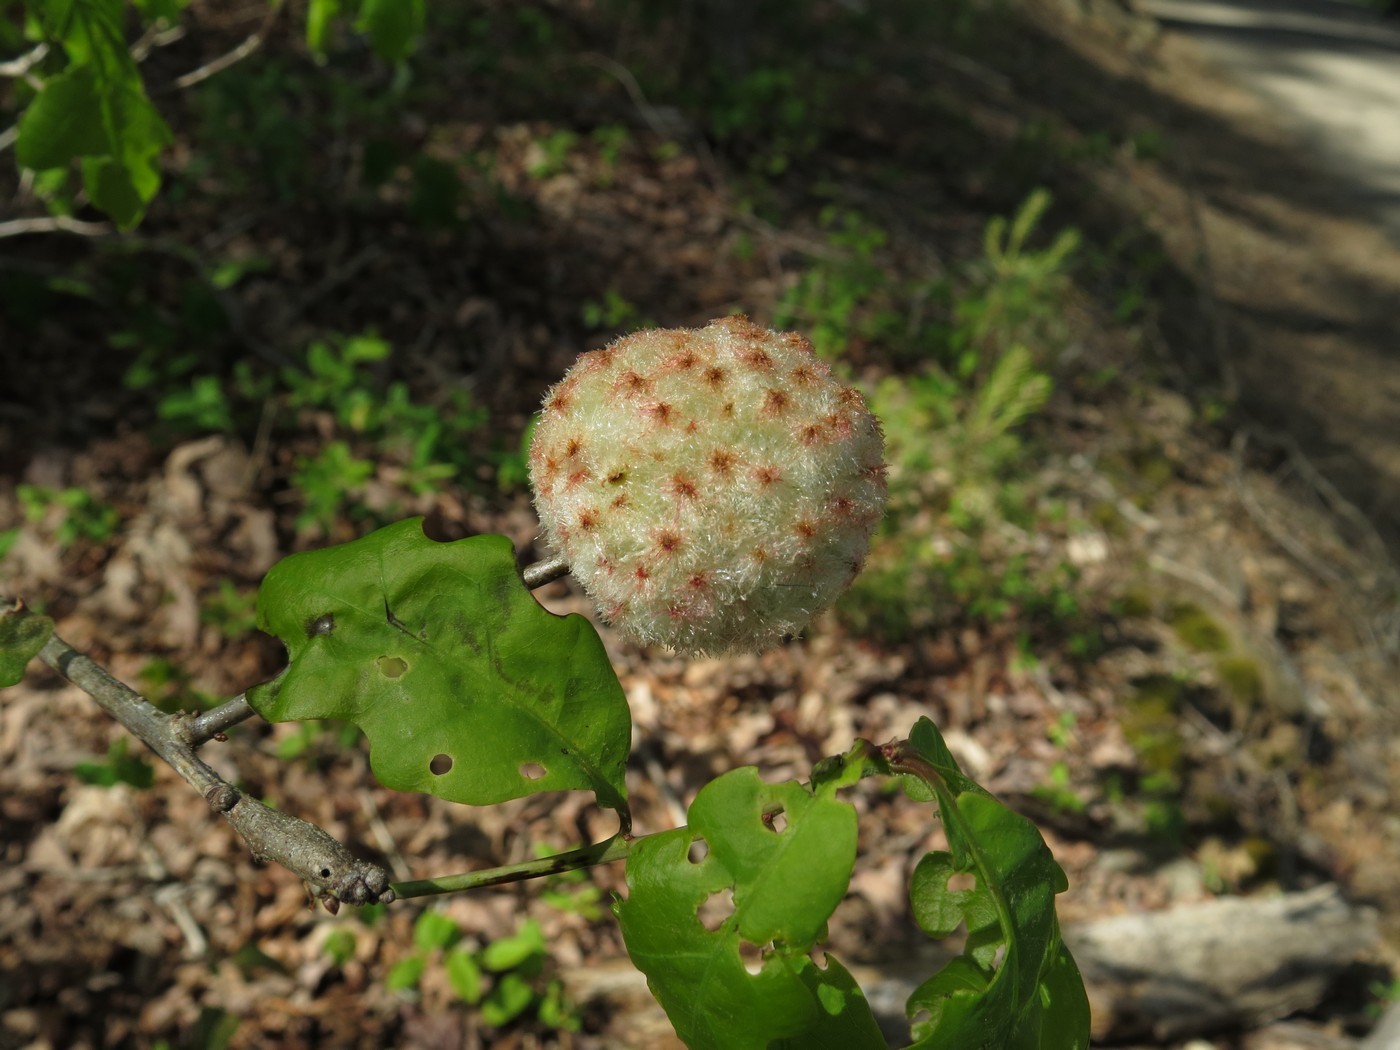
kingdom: Animalia
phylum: Arthropoda
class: Insecta
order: Hymenoptera
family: Cynipidae
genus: Callirhytis
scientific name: Callirhytis
